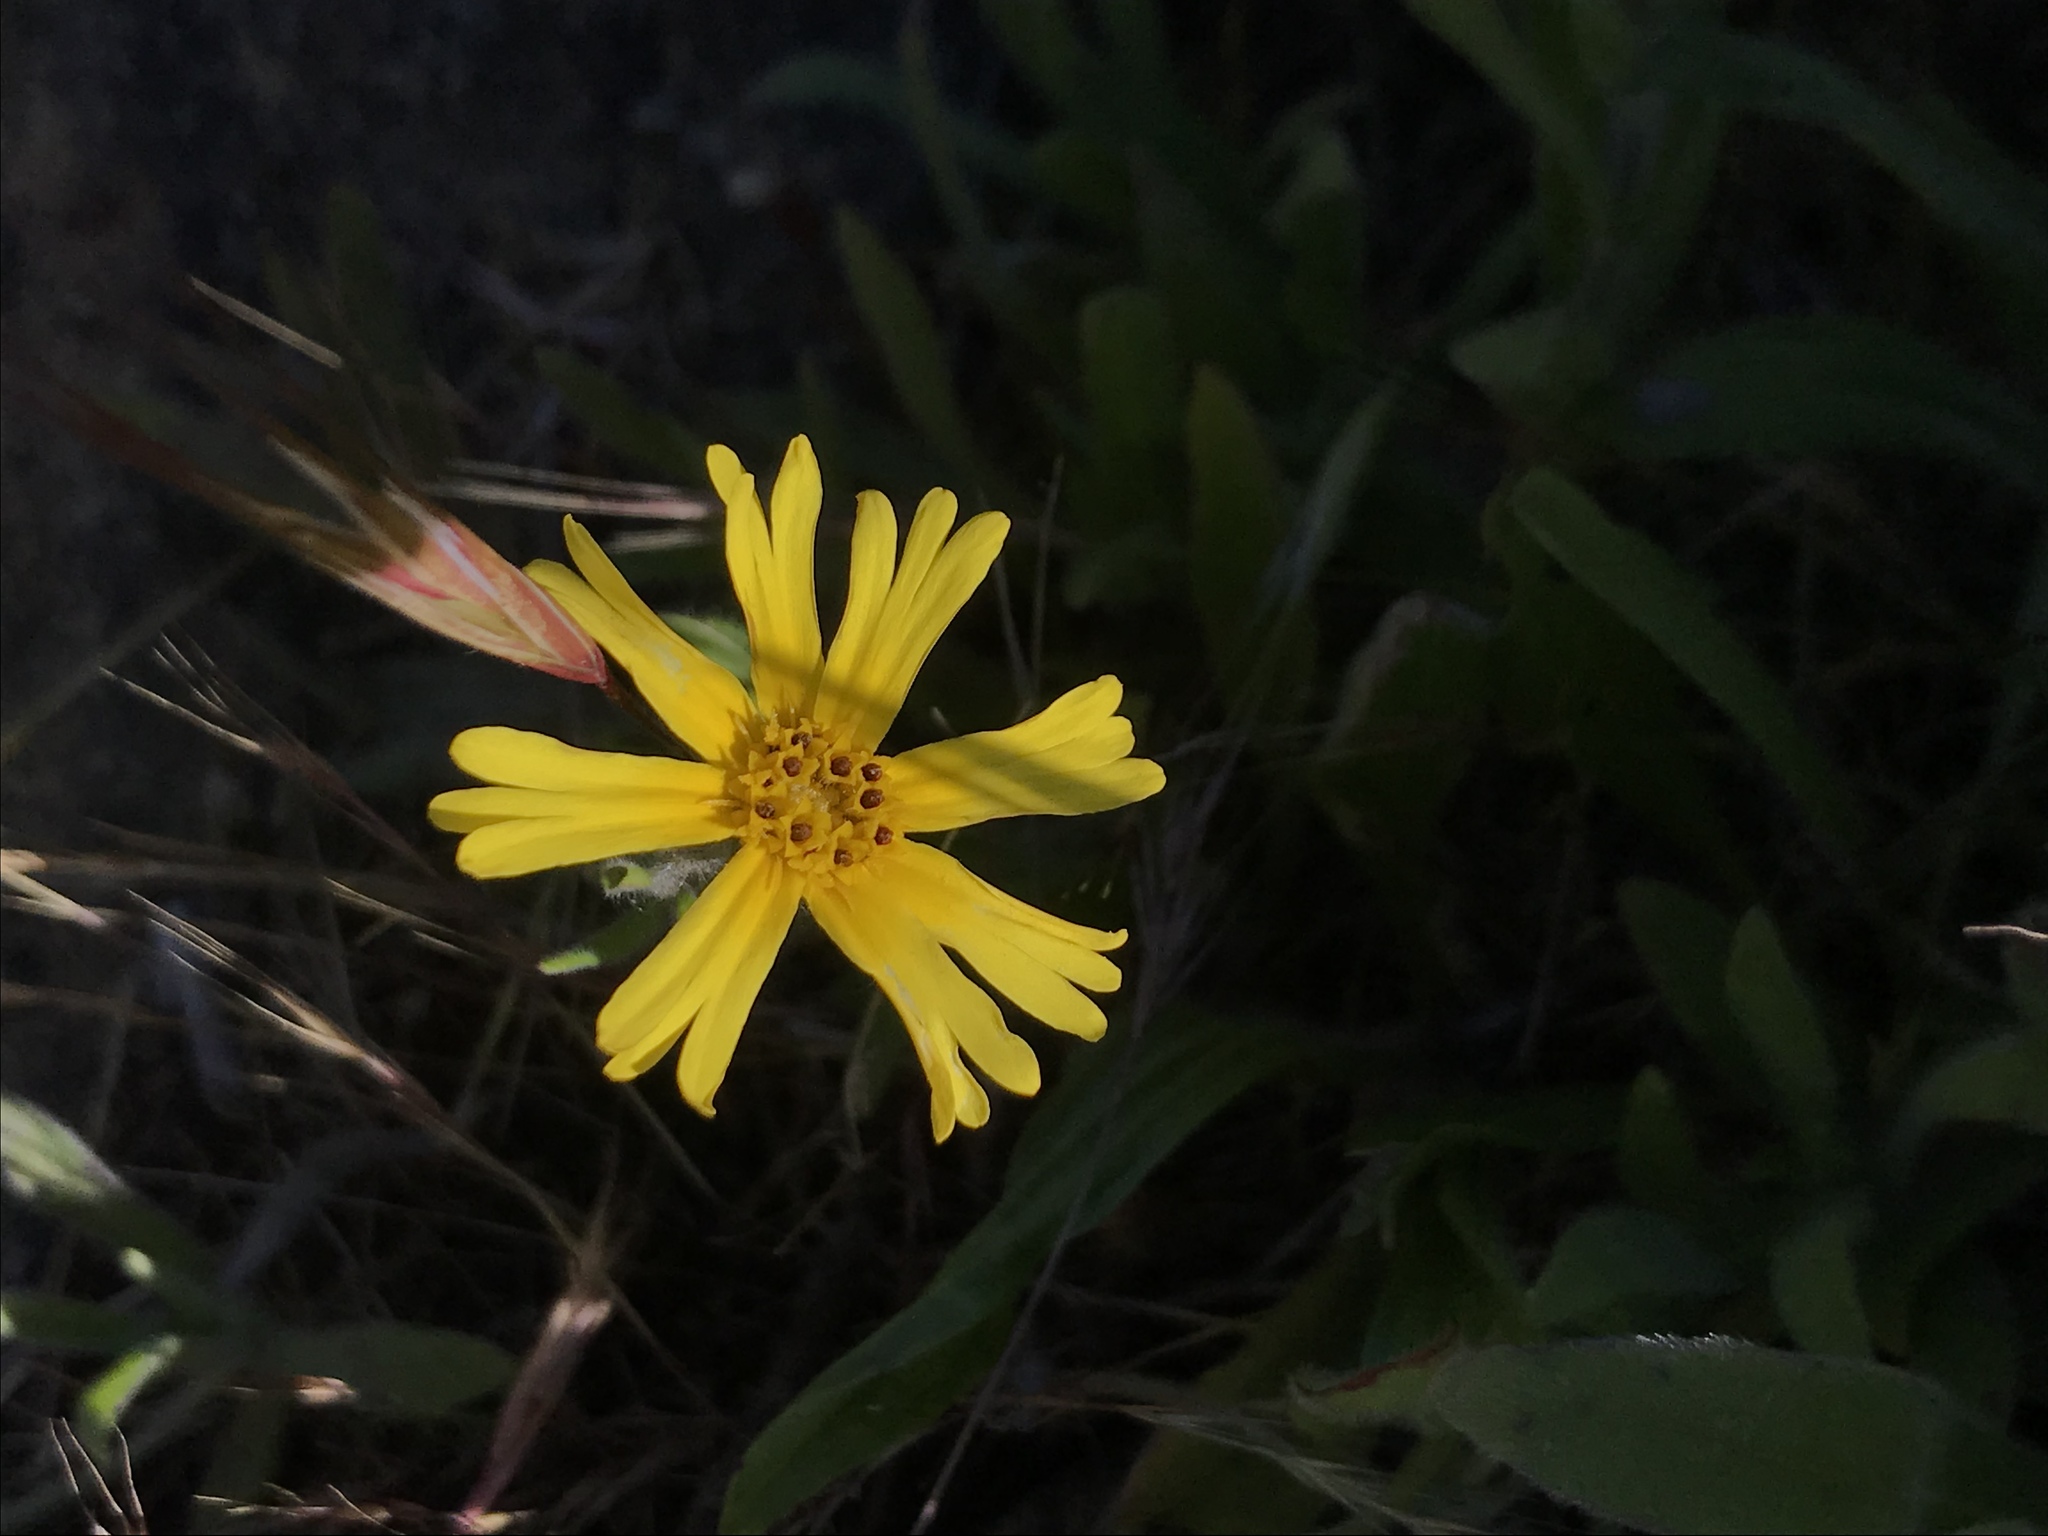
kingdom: Plantae
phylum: Tracheophyta
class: Magnoliopsida
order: Asterales
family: Asteraceae
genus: Madia
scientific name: Madia elegans
